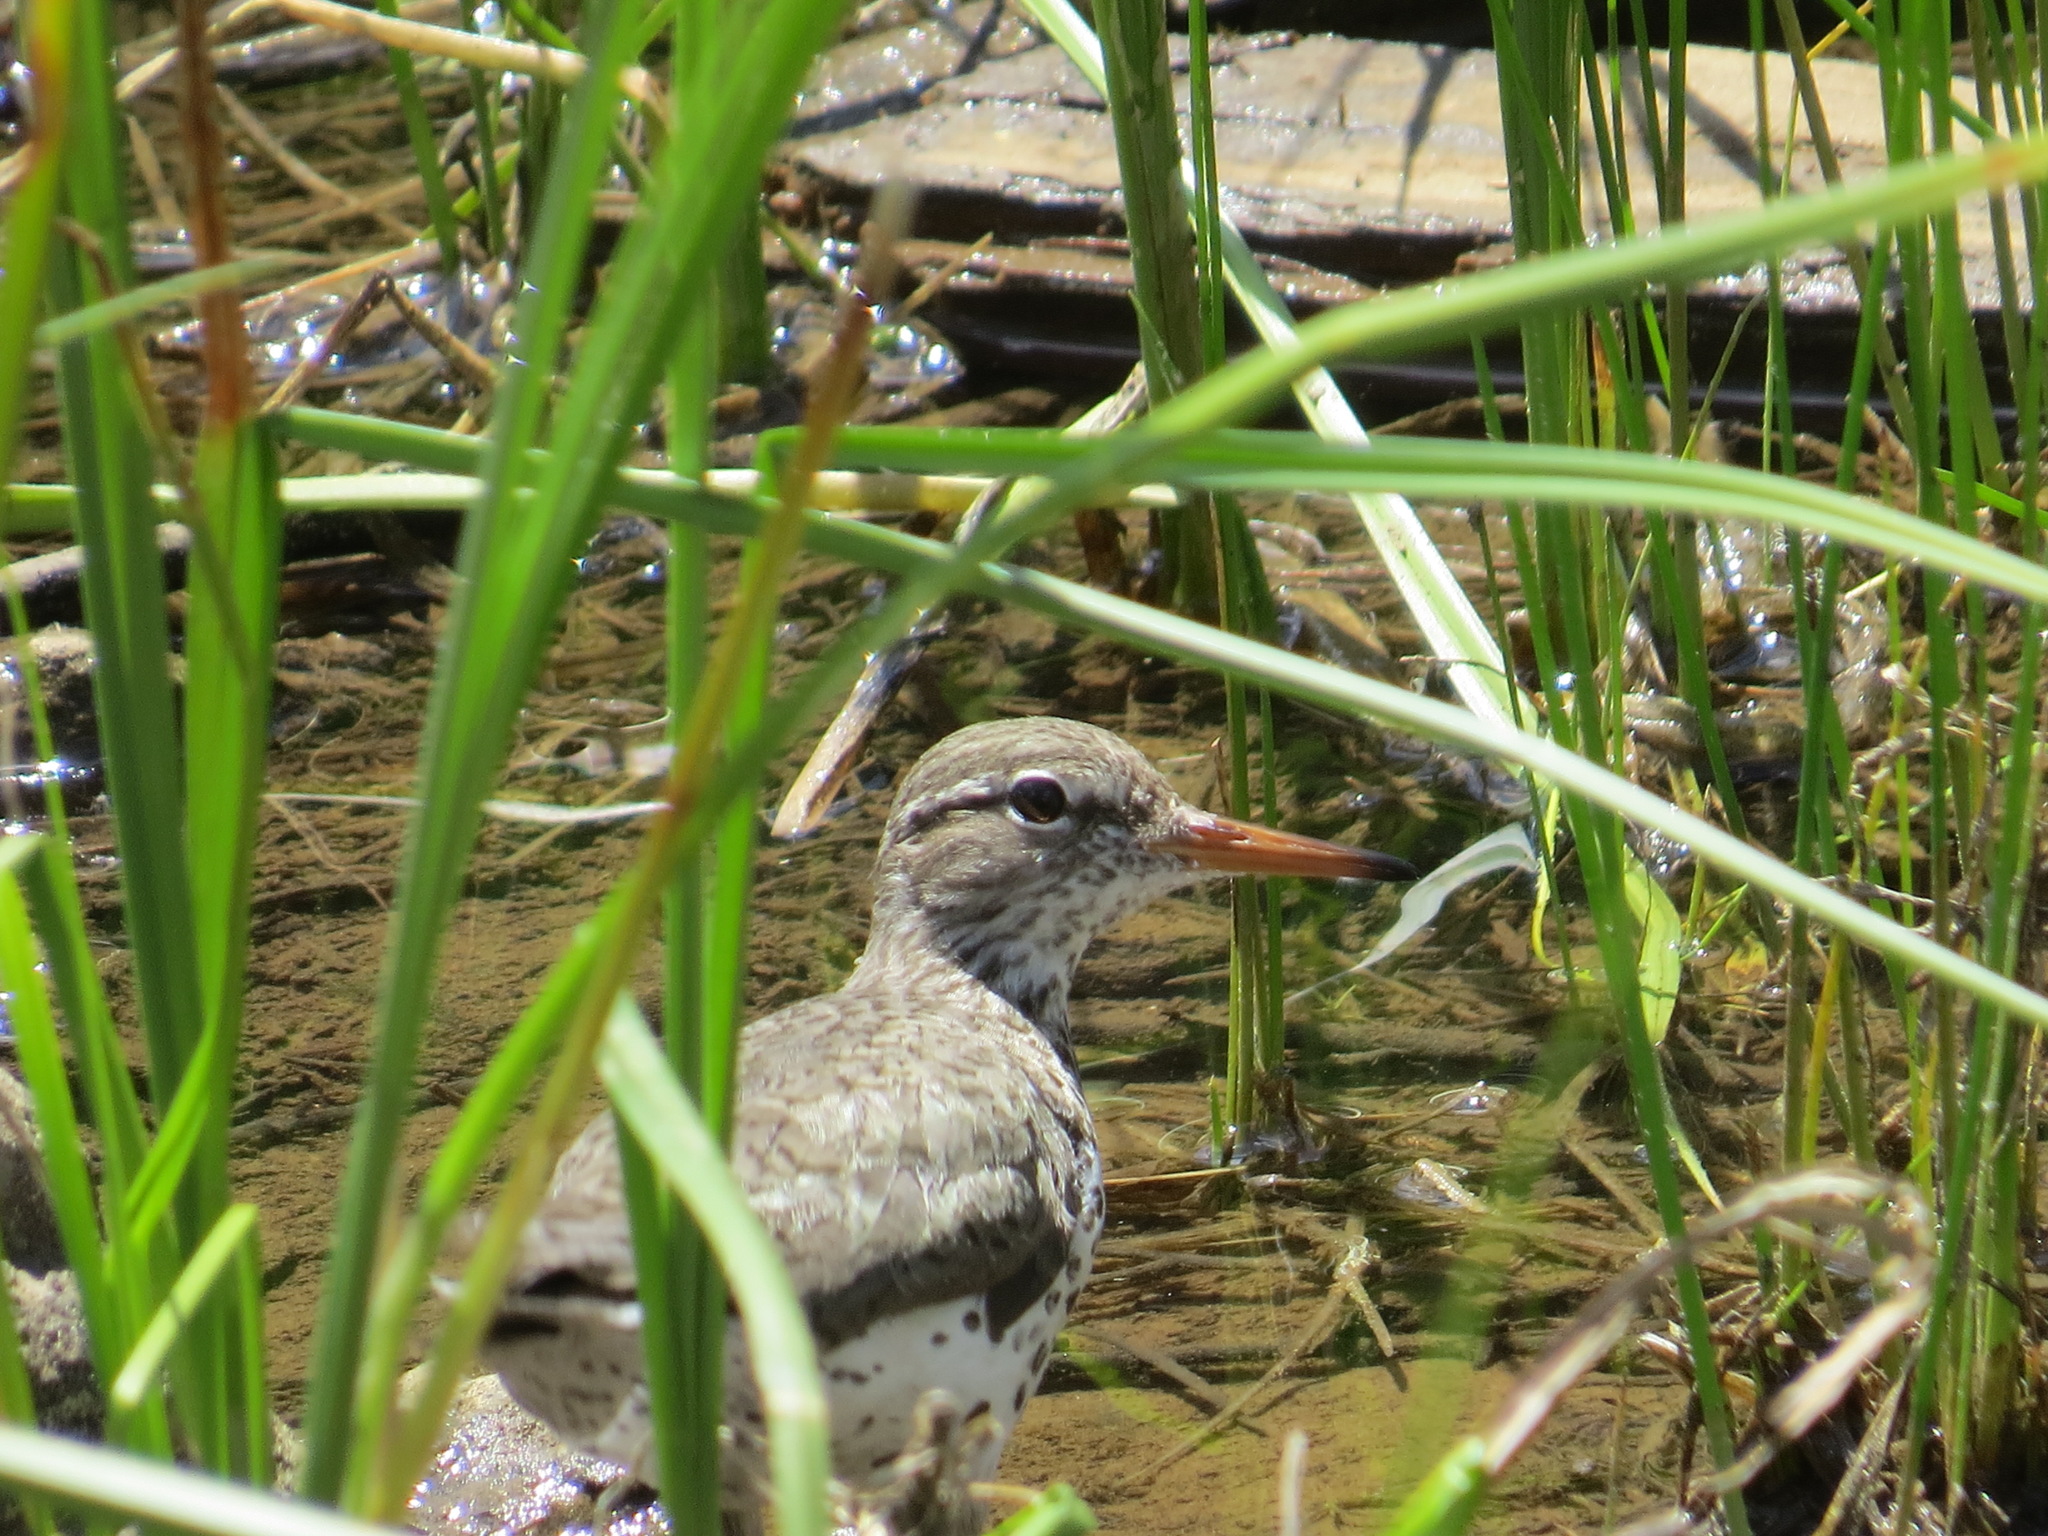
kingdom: Animalia
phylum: Chordata
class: Aves
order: Charadriiformes
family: Scolopacidae
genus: Actitis
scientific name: Actitis macularius
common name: Spotted sandpiper
